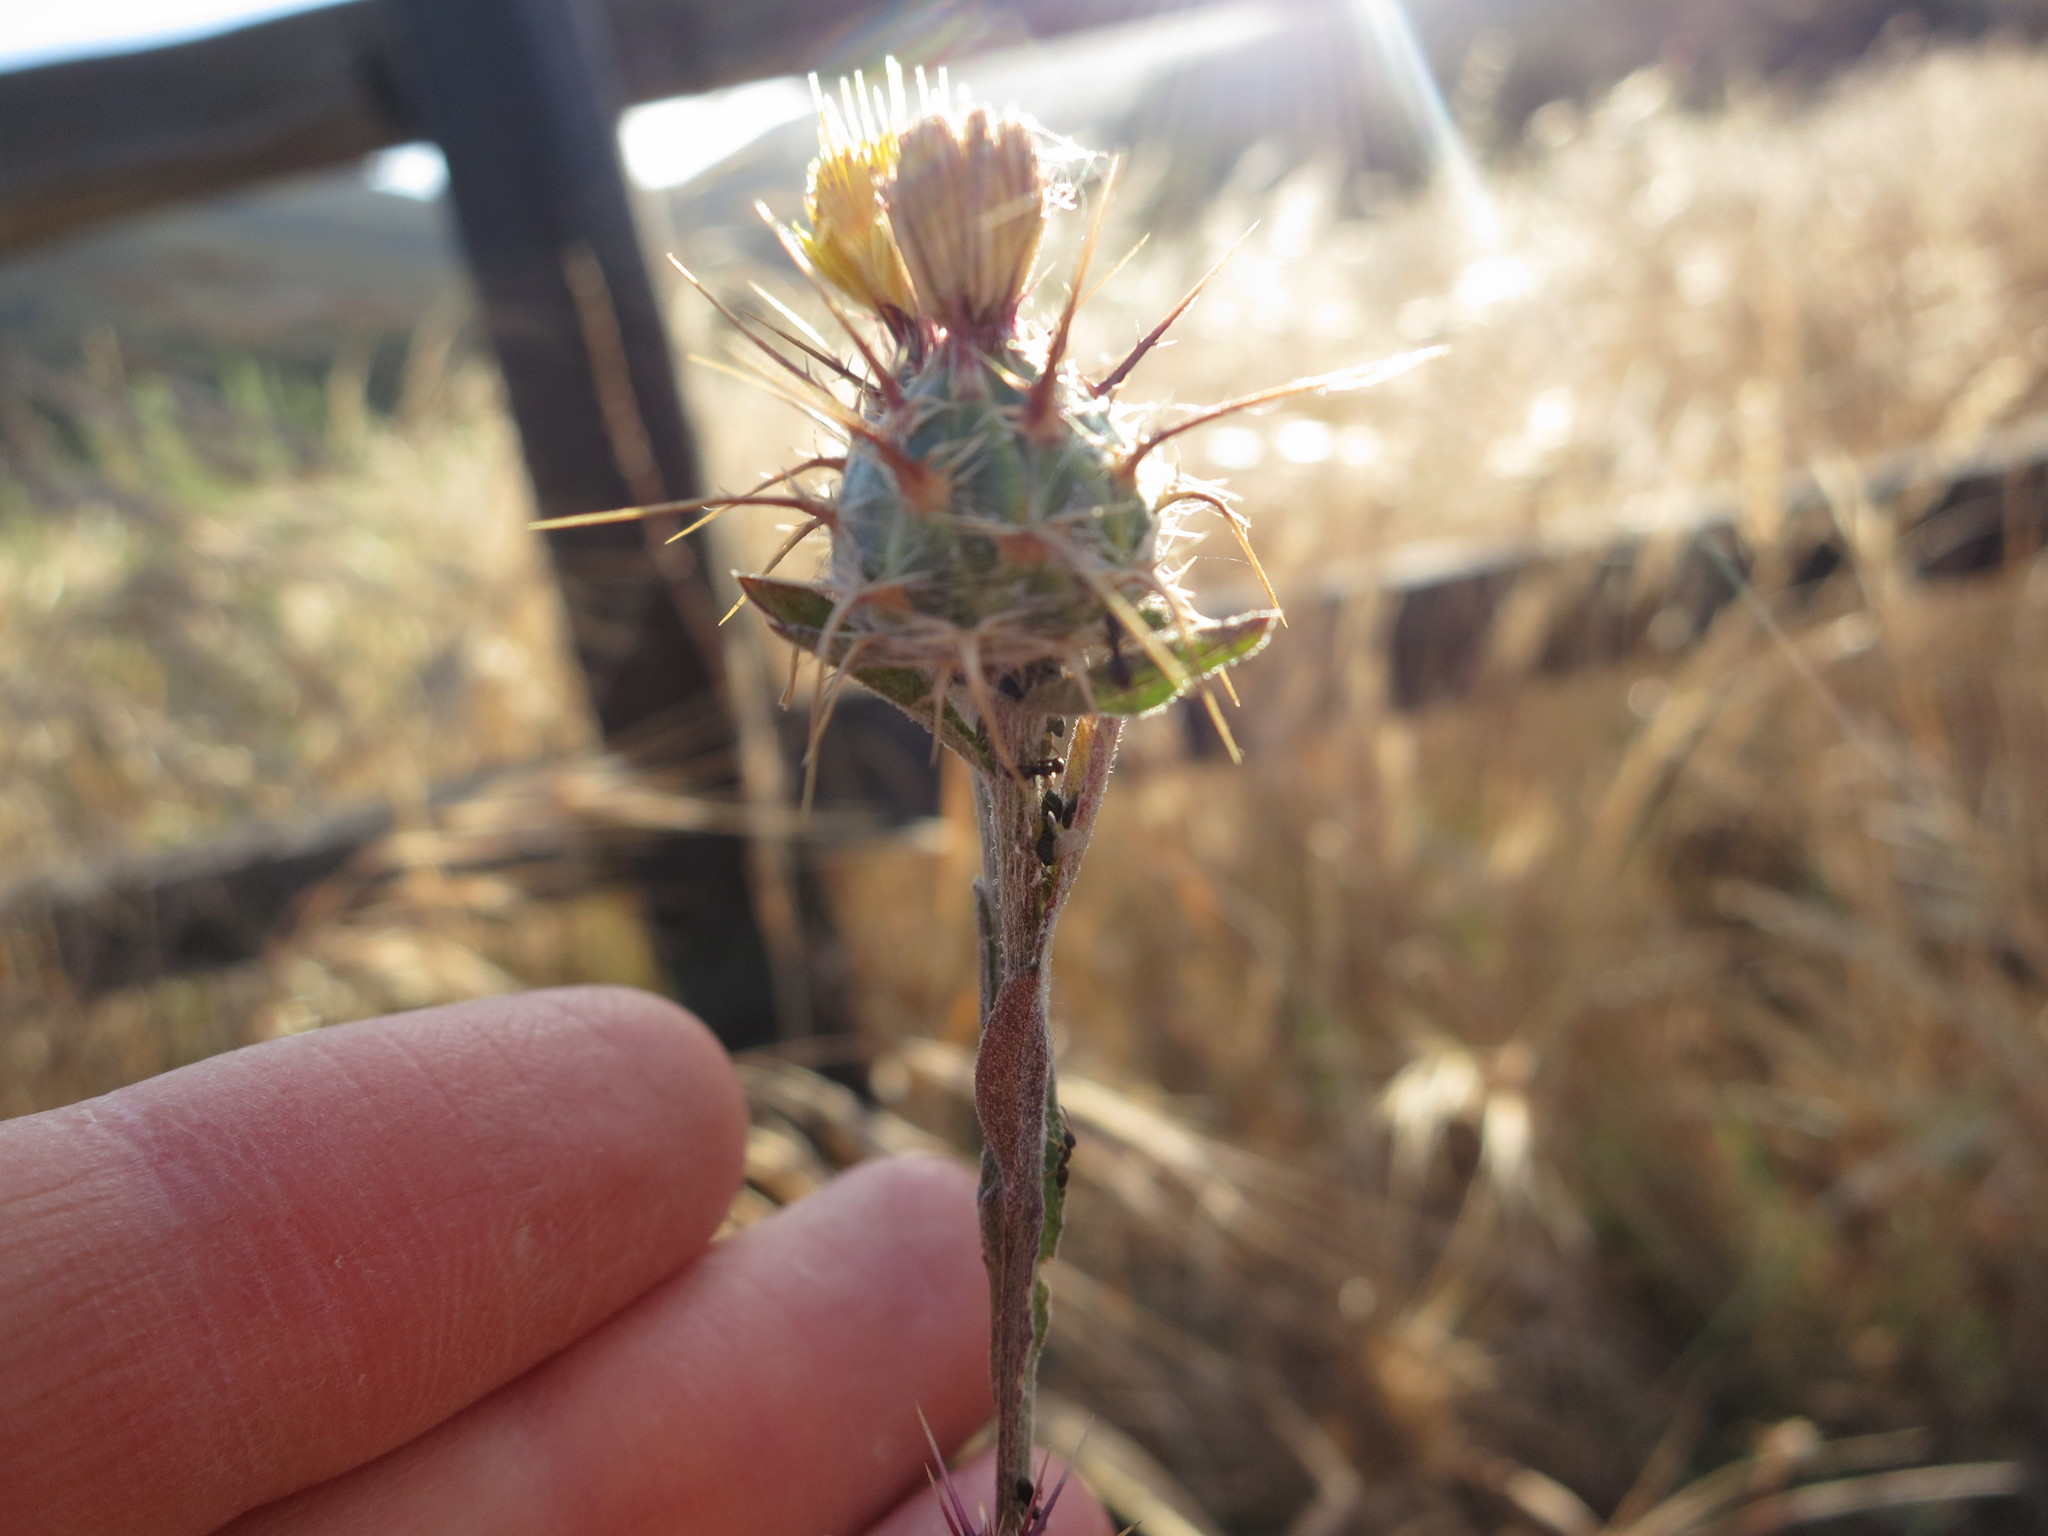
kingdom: Plantae
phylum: Tracheophyta
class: Magnoliopsida
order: Asterales
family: Asteraceae
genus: Centaurea
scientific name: Centaurea melitensis
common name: Maltese star-thistle
